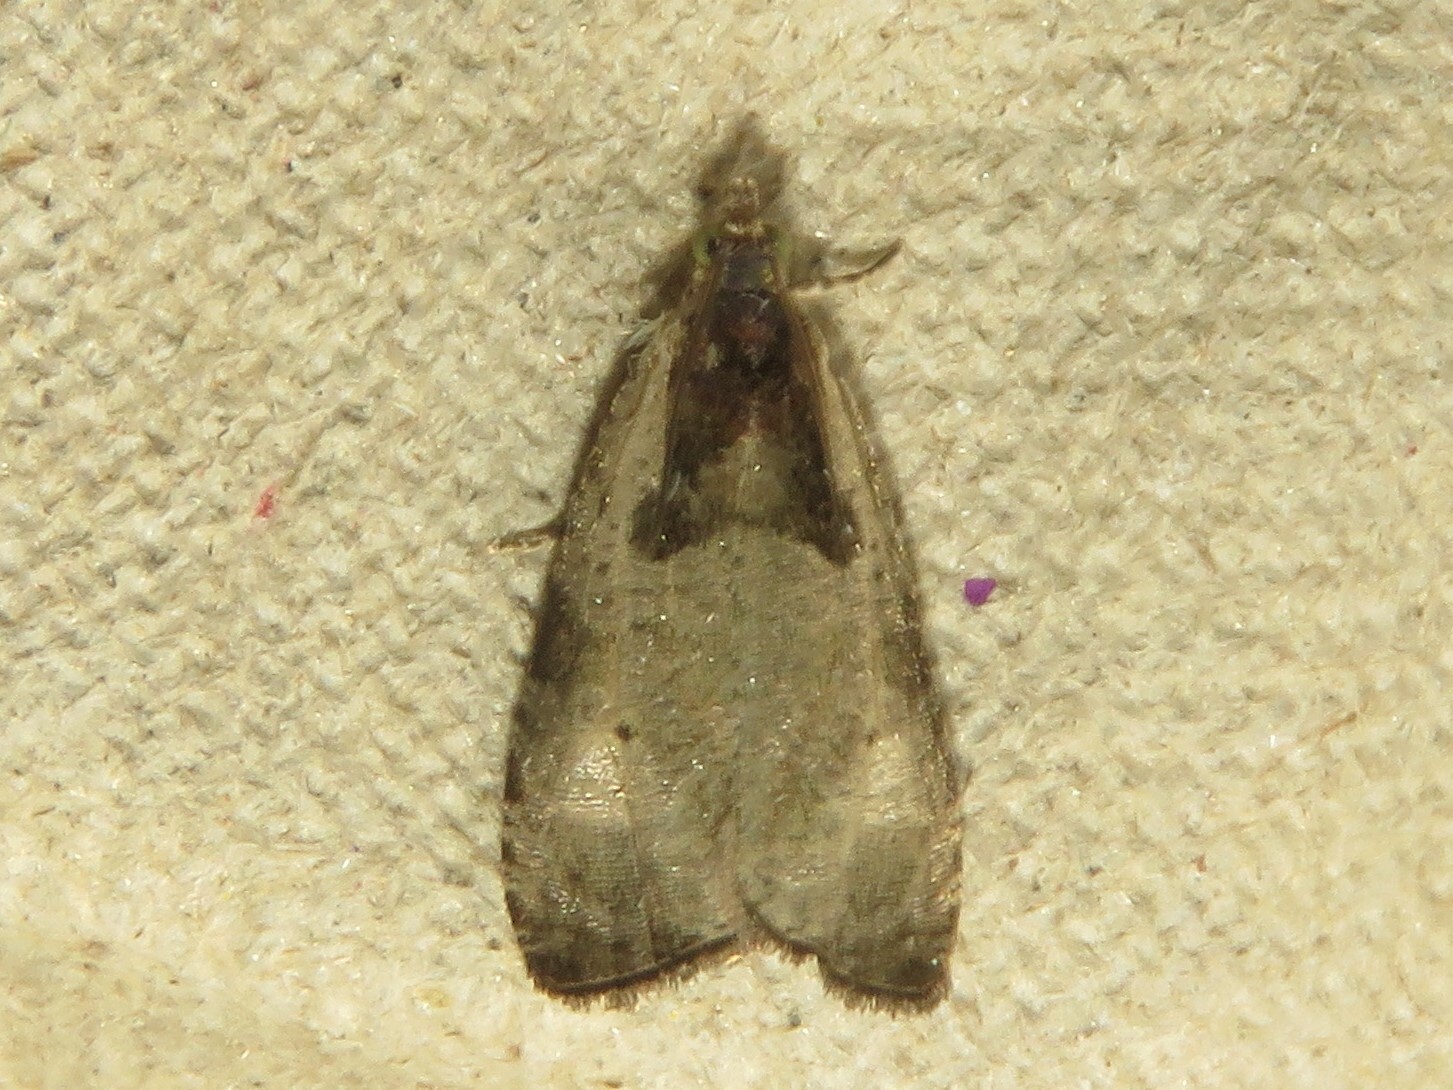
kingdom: Animalia
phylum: Arthropoda
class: Insecta
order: Lepidoptera
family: Tortricidae
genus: Olethreutes
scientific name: Olethreutes punctanum
